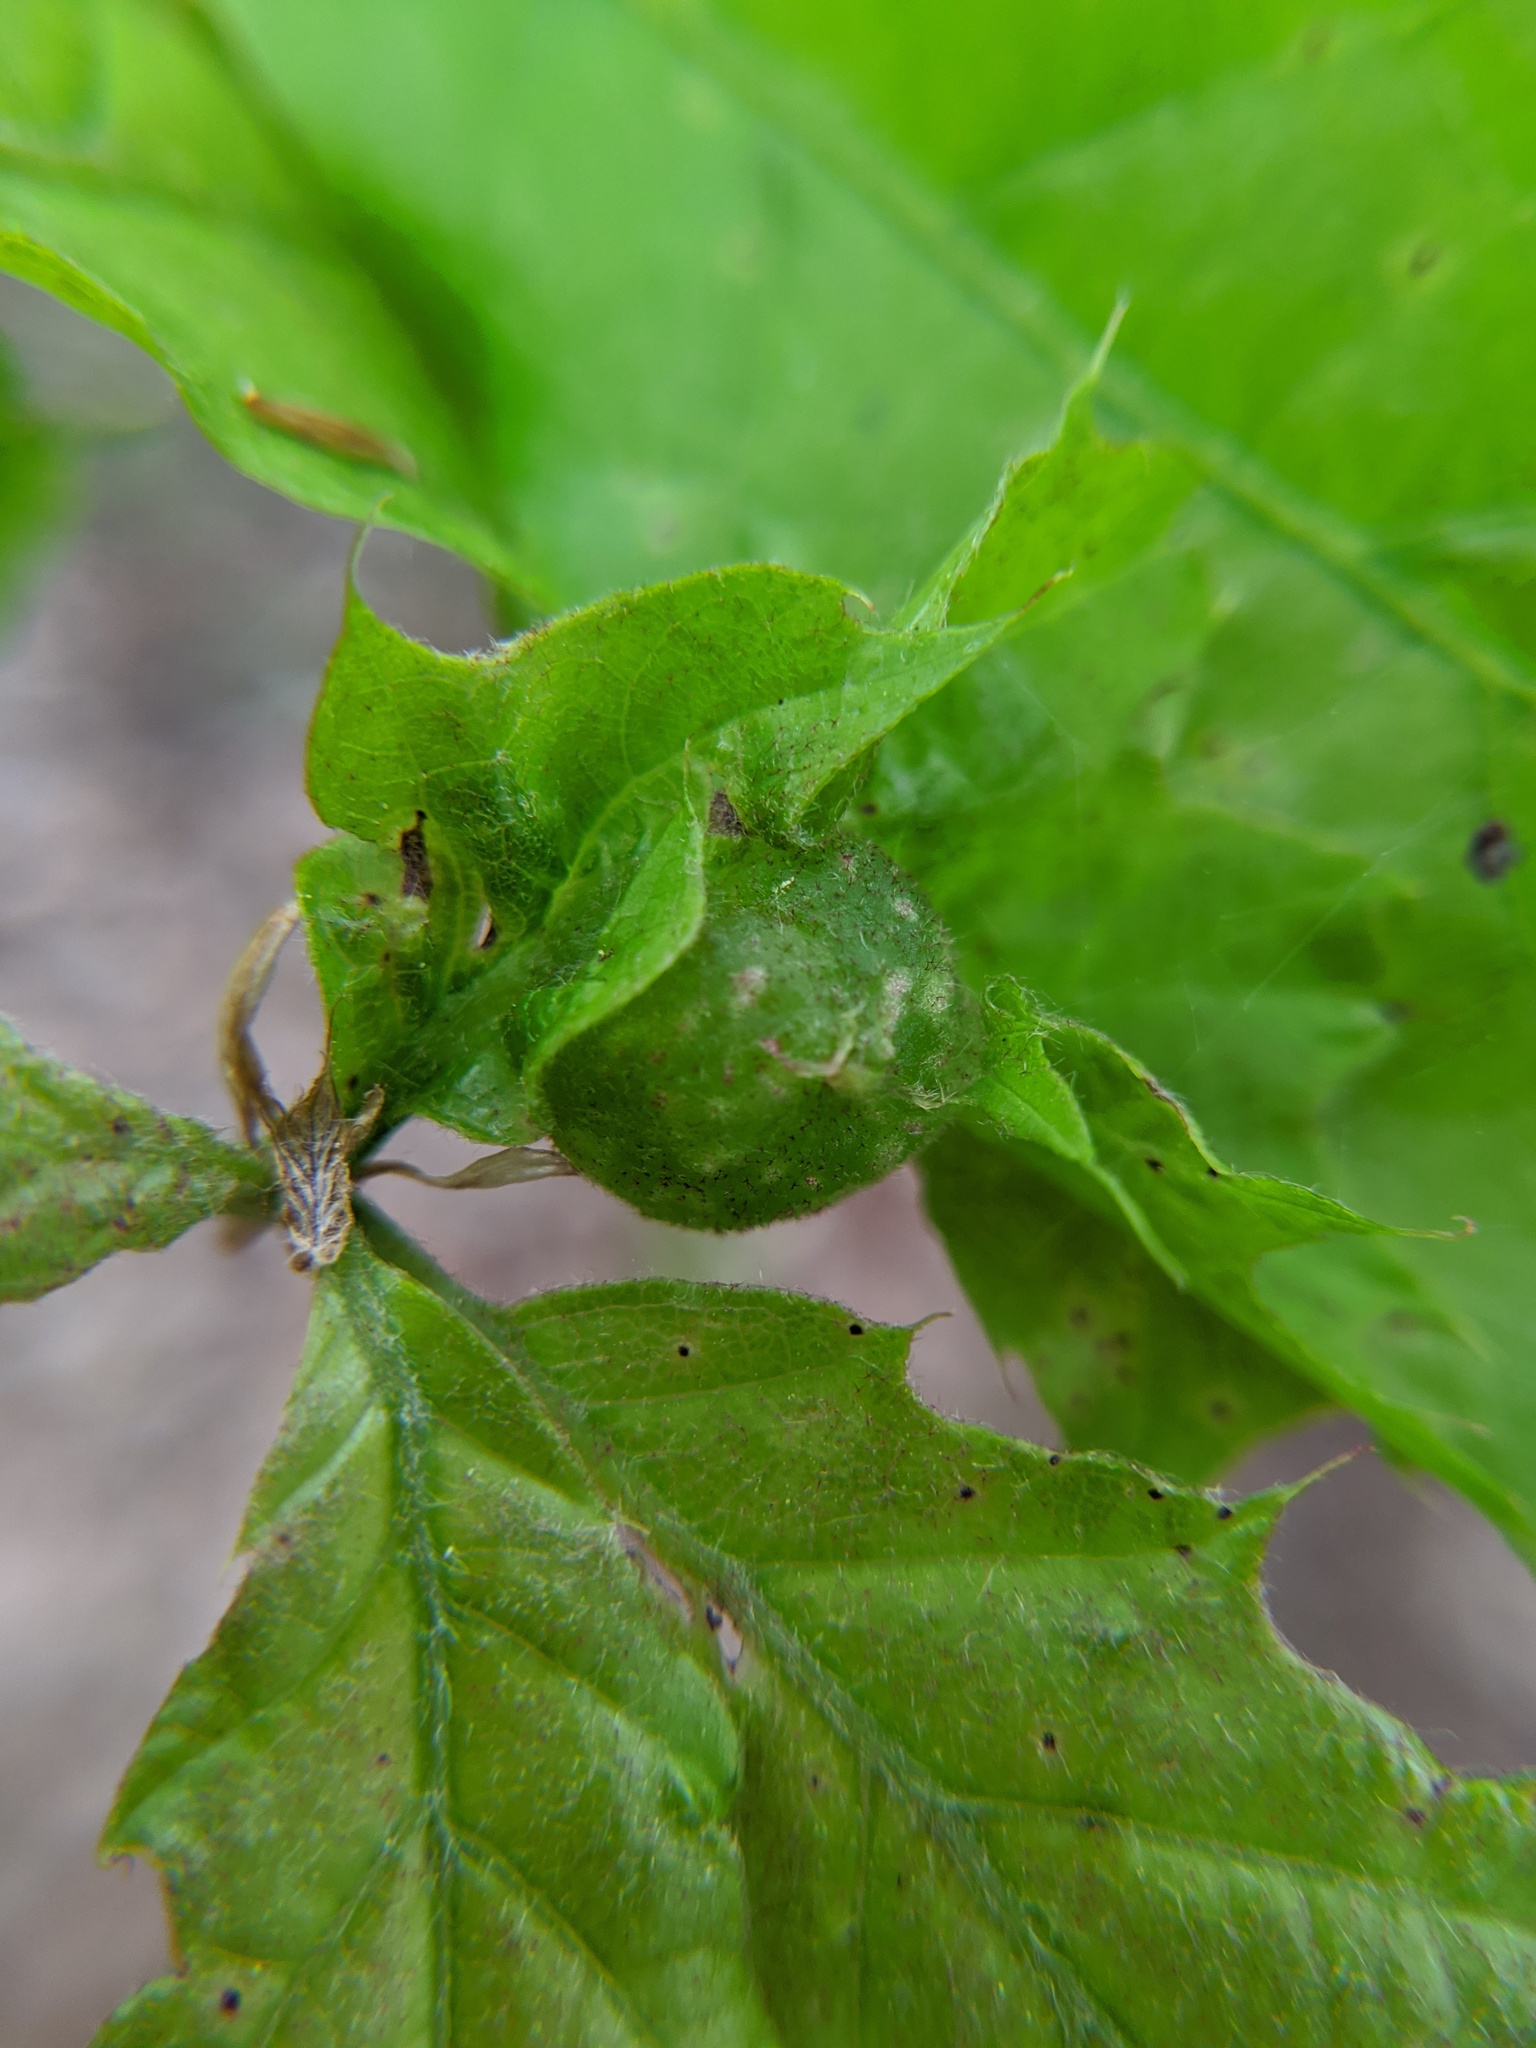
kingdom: Animalia
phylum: Arthropoda
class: Insecta
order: Hymenoptera
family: Cynipidae
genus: Dryocosmus
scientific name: Dryocosmus quercuspalustris
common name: Succulent oak gall wasp
